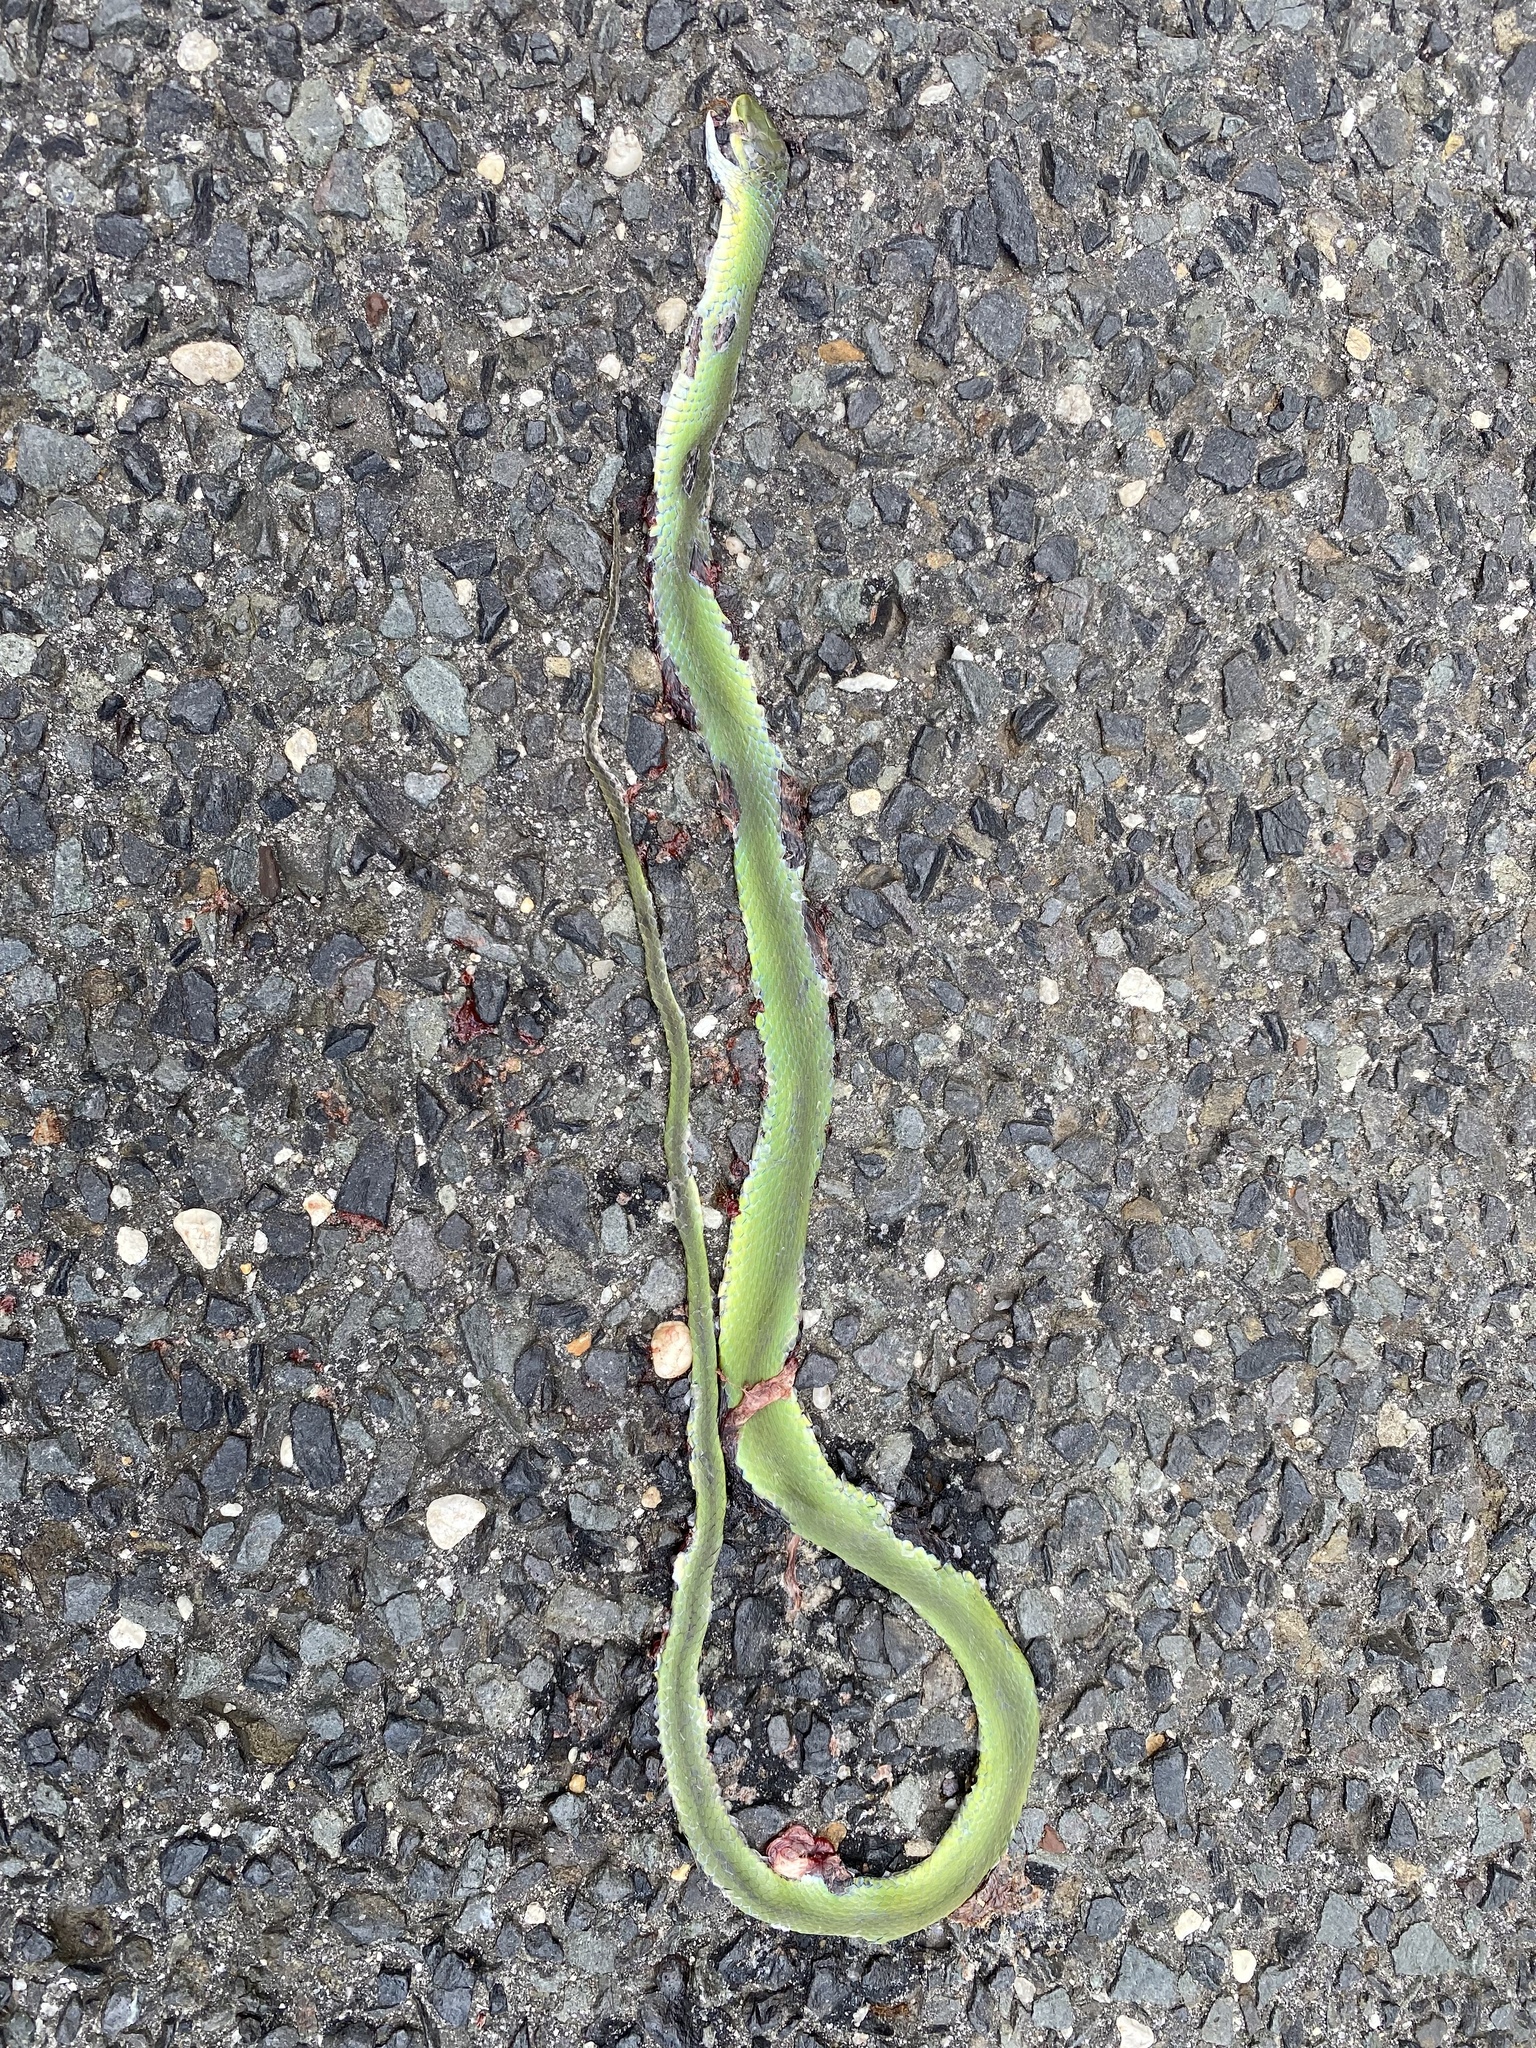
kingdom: Animalia
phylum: Chordata
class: Squamata
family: Colubridae
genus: Opheodrys
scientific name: Opheodrys aestivus
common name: Rough greensnake
